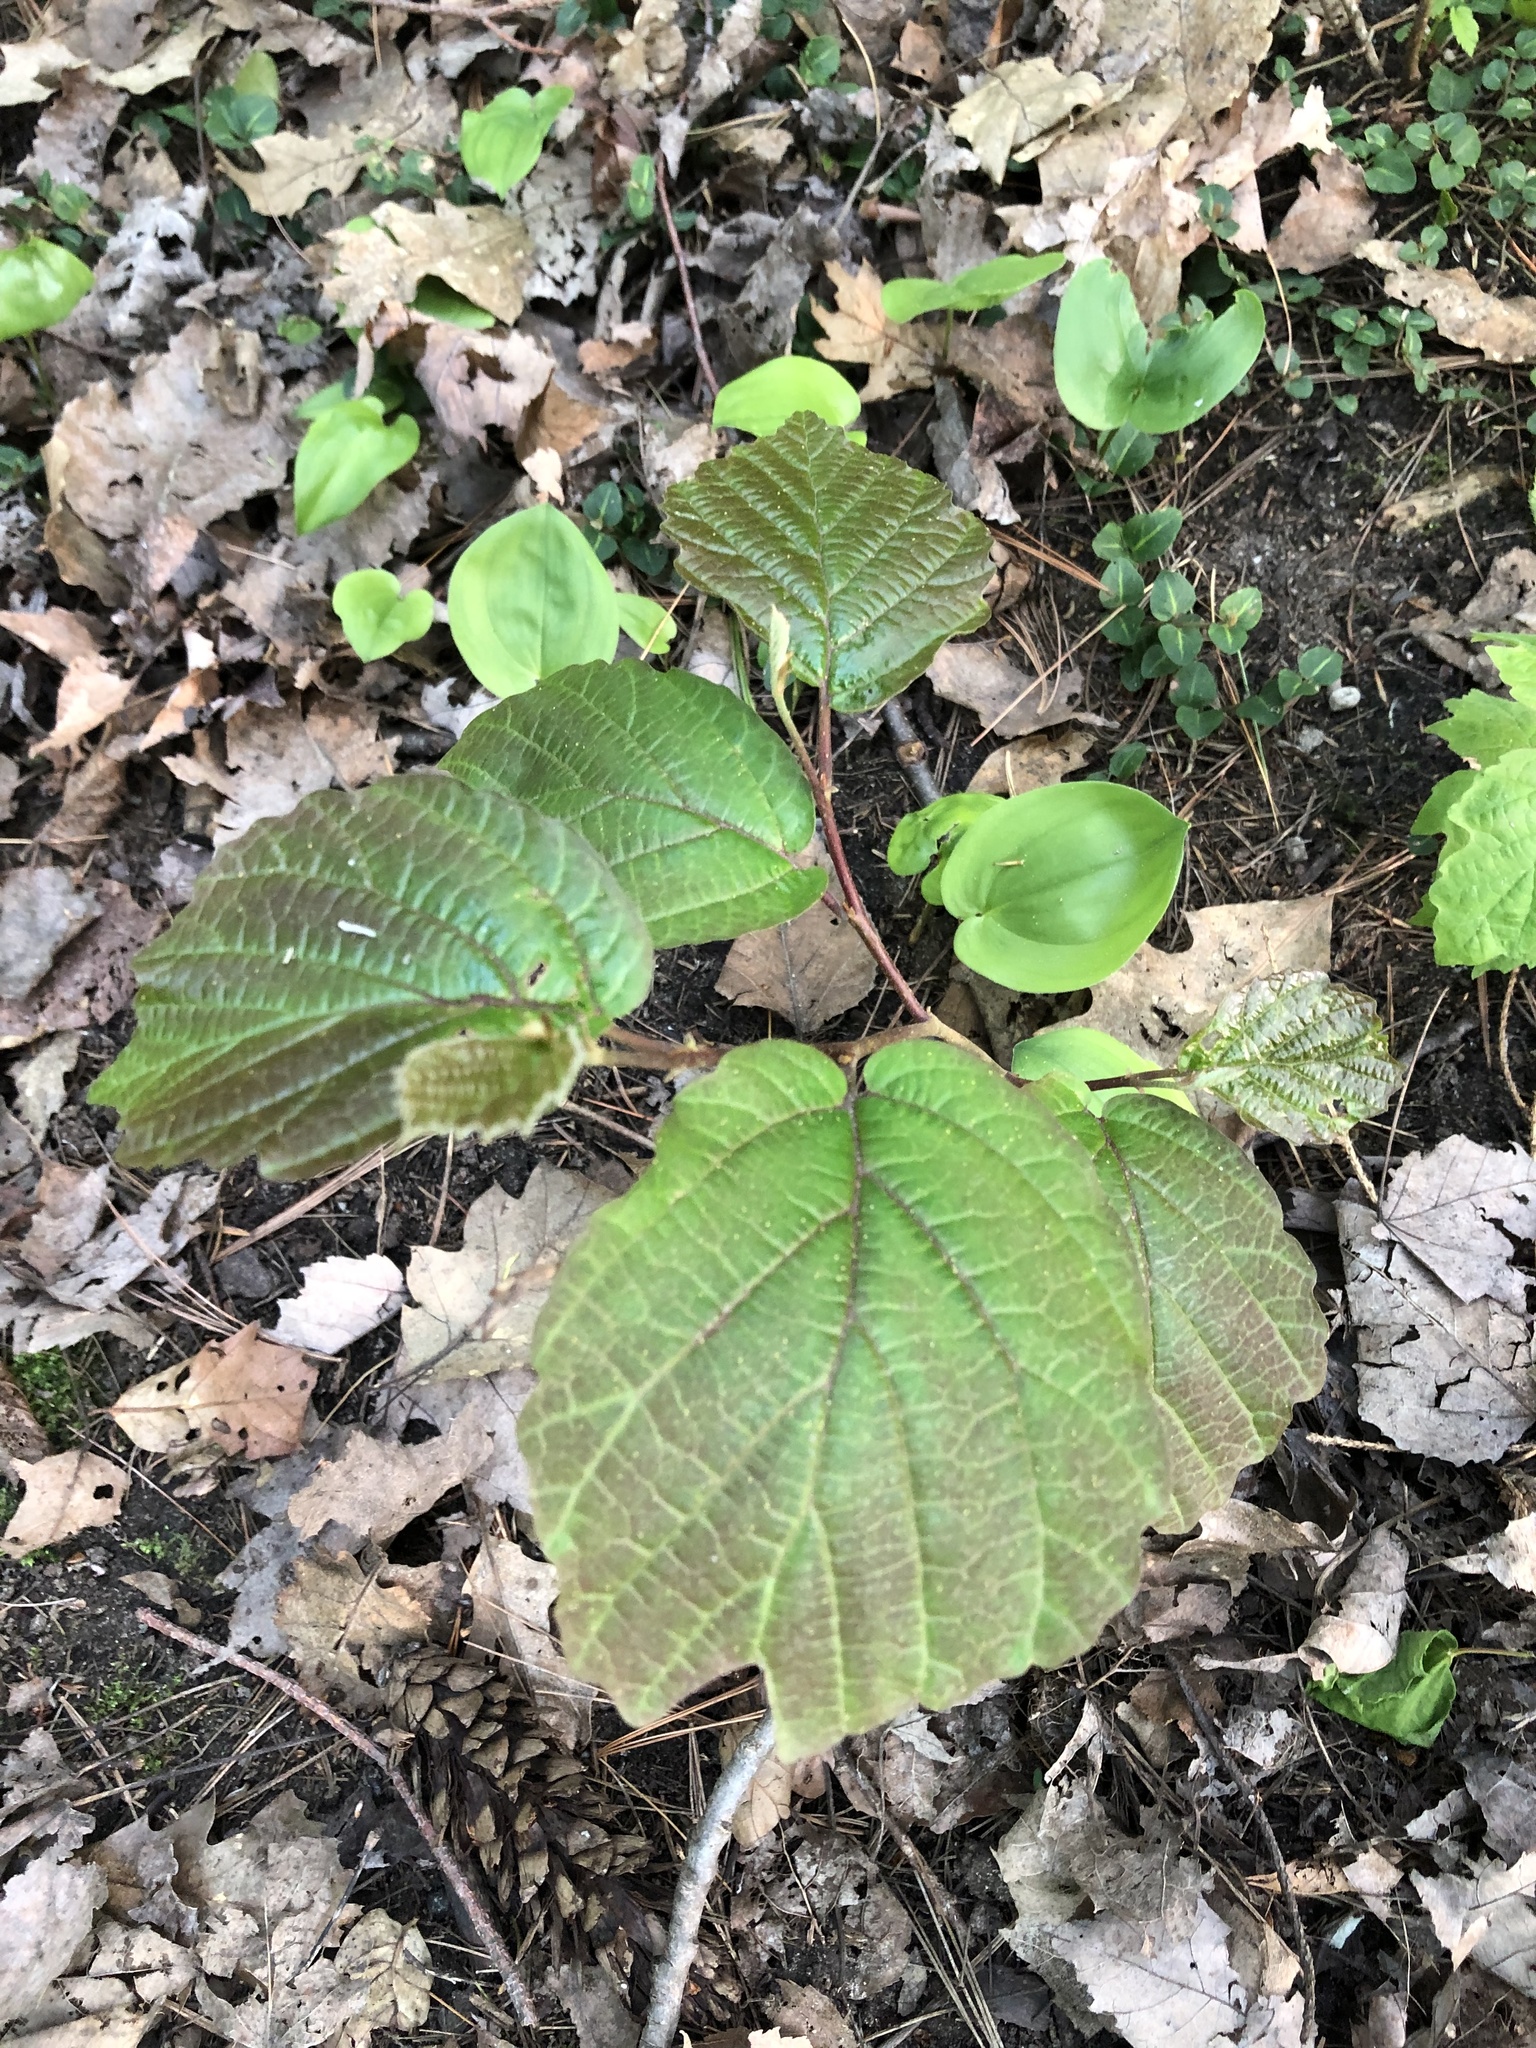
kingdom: Plantae
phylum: Tracheophyta
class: Magnoliopsida
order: Saxifragales
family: Hamamelidaceae
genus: Hamamelis
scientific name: Hamamelis virginiana
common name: Witch-hazel
